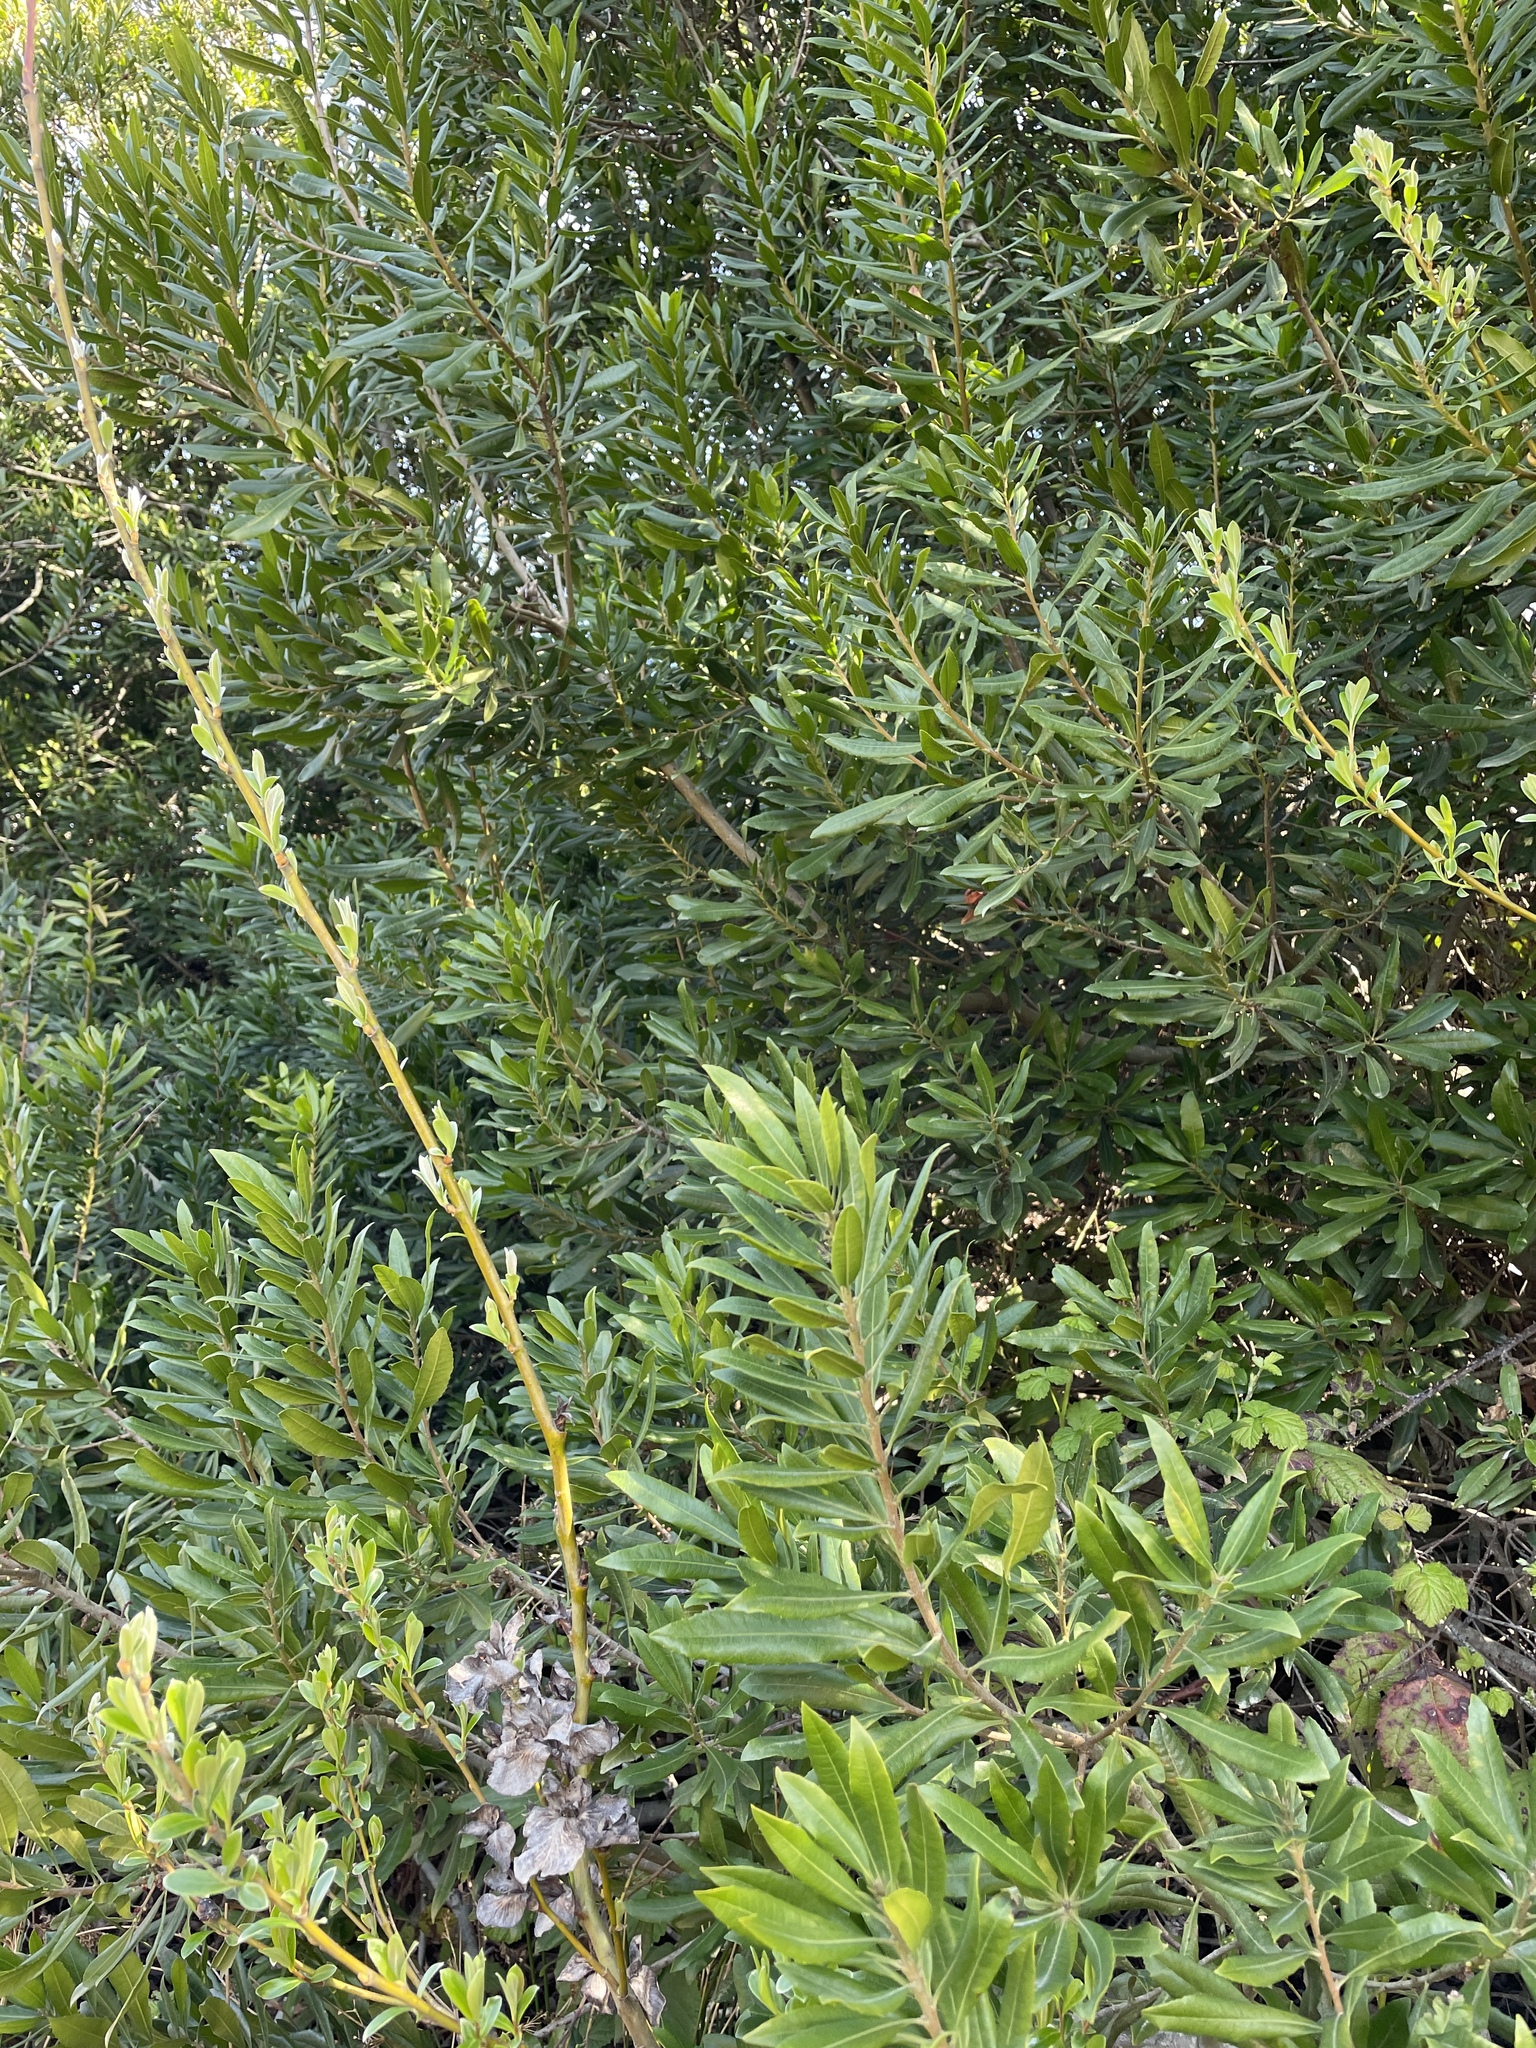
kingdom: Plantae
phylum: Tracheophyta
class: Magnoliopsida
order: Fagales
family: Myricaceae
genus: Morella
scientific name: Morella californica
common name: California wax-myrtle
